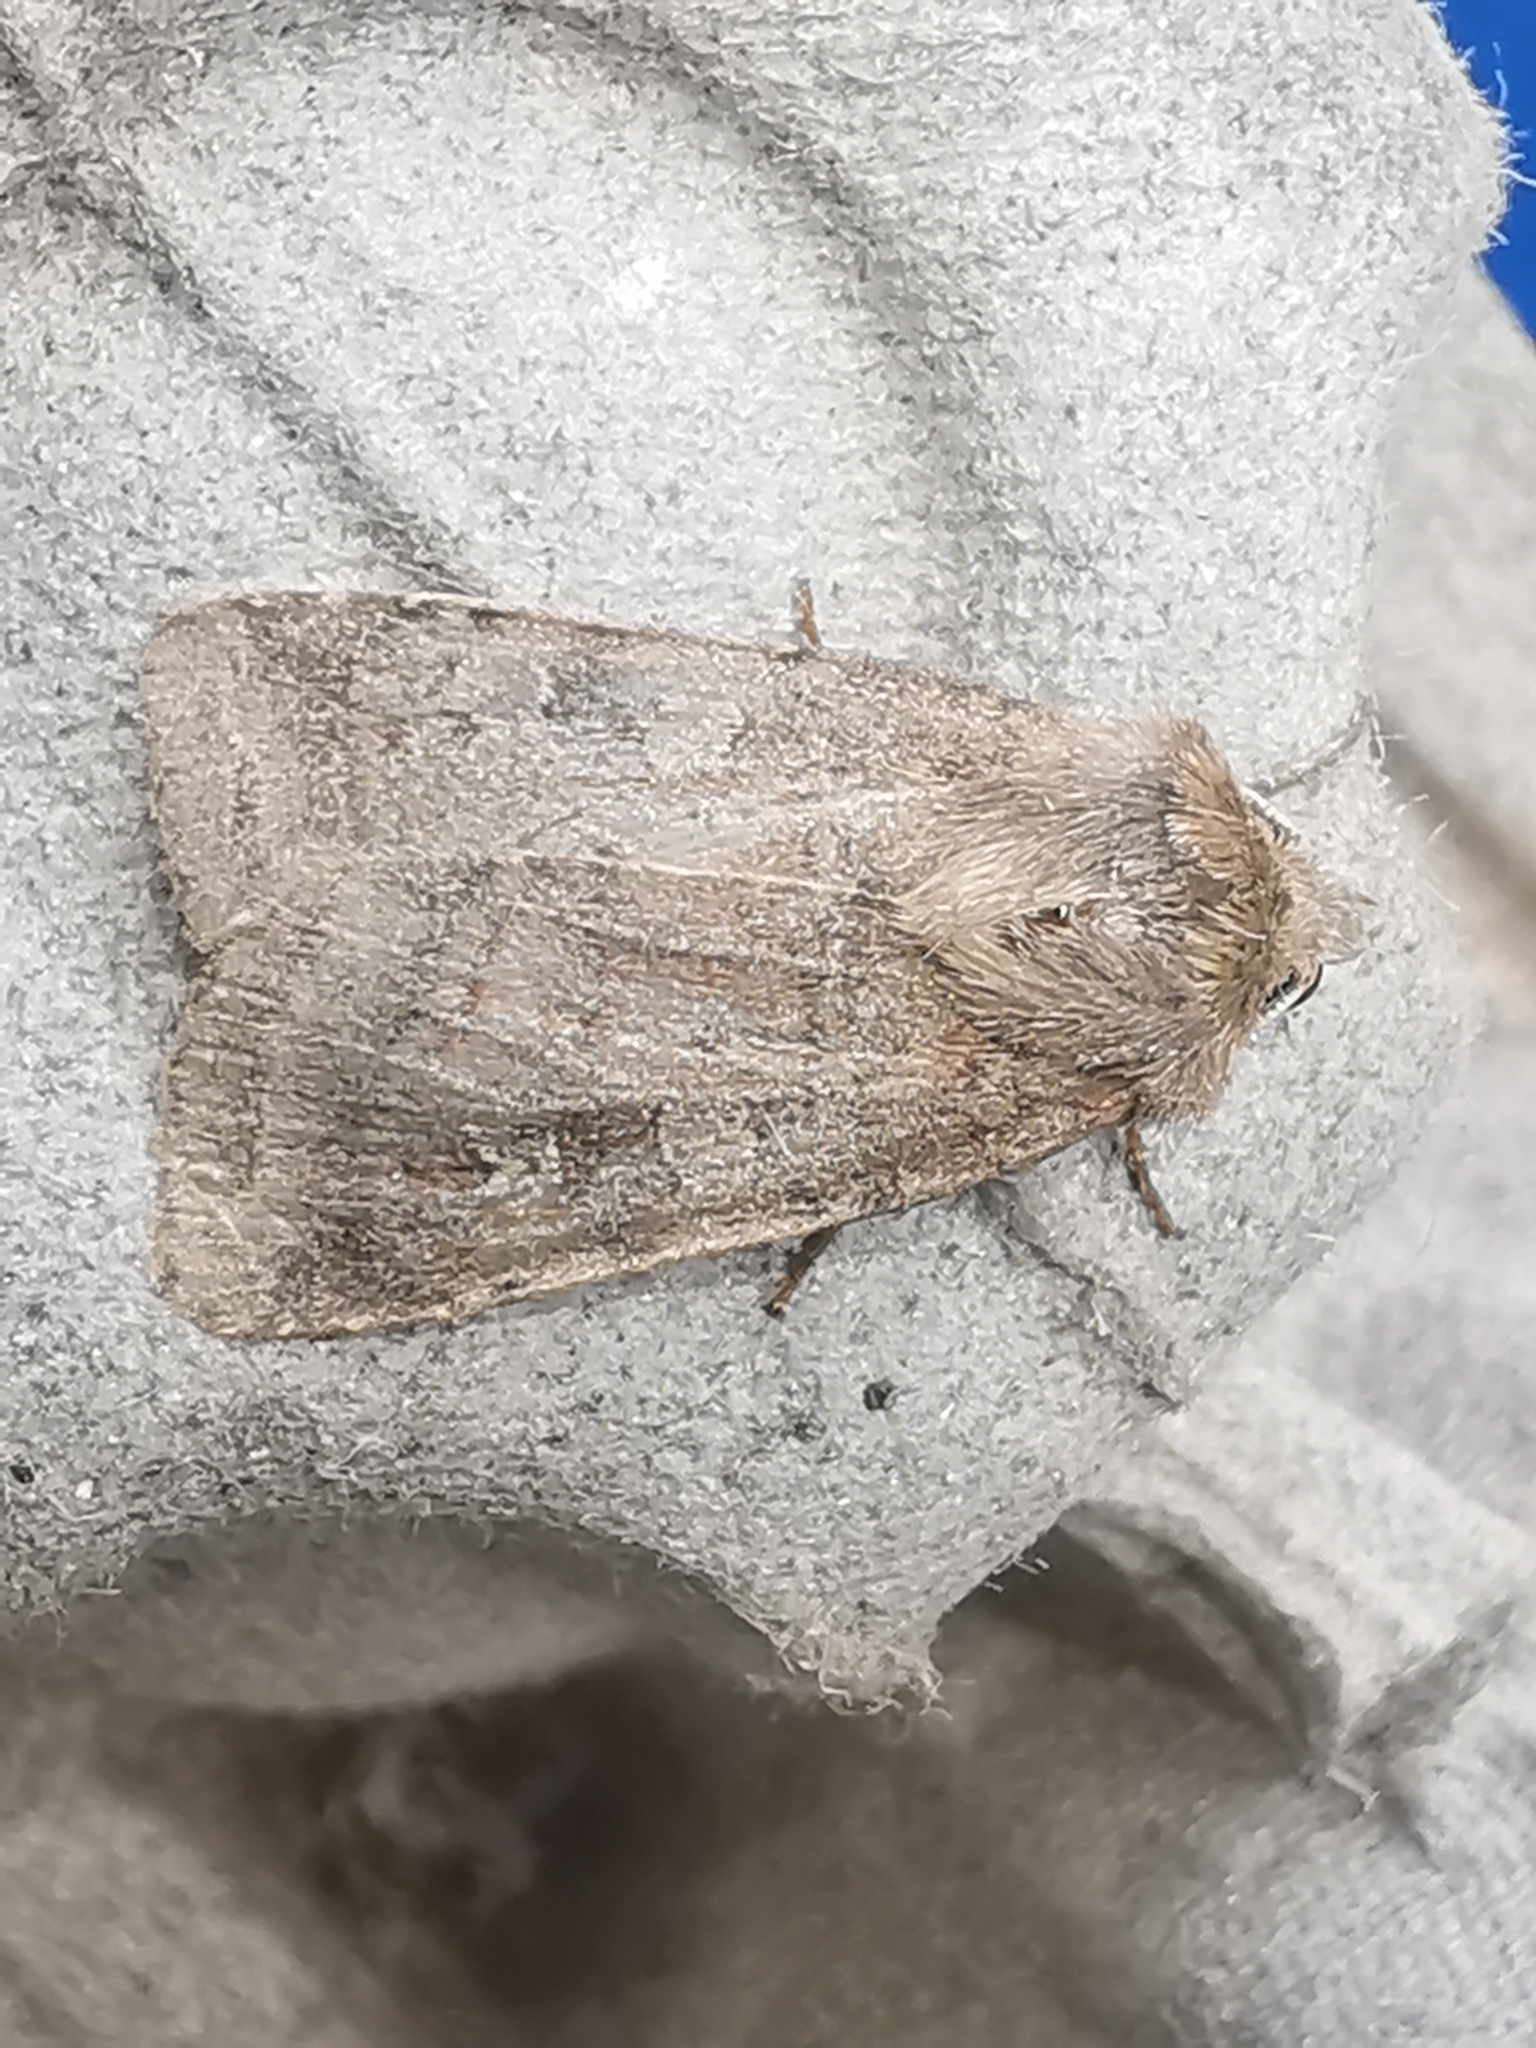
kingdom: Animalia
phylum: Arthropoda
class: Insecta
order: Lepidoptera
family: Noctuidae
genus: Diarsia
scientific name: Diarsia rubi
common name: Small square-spot
